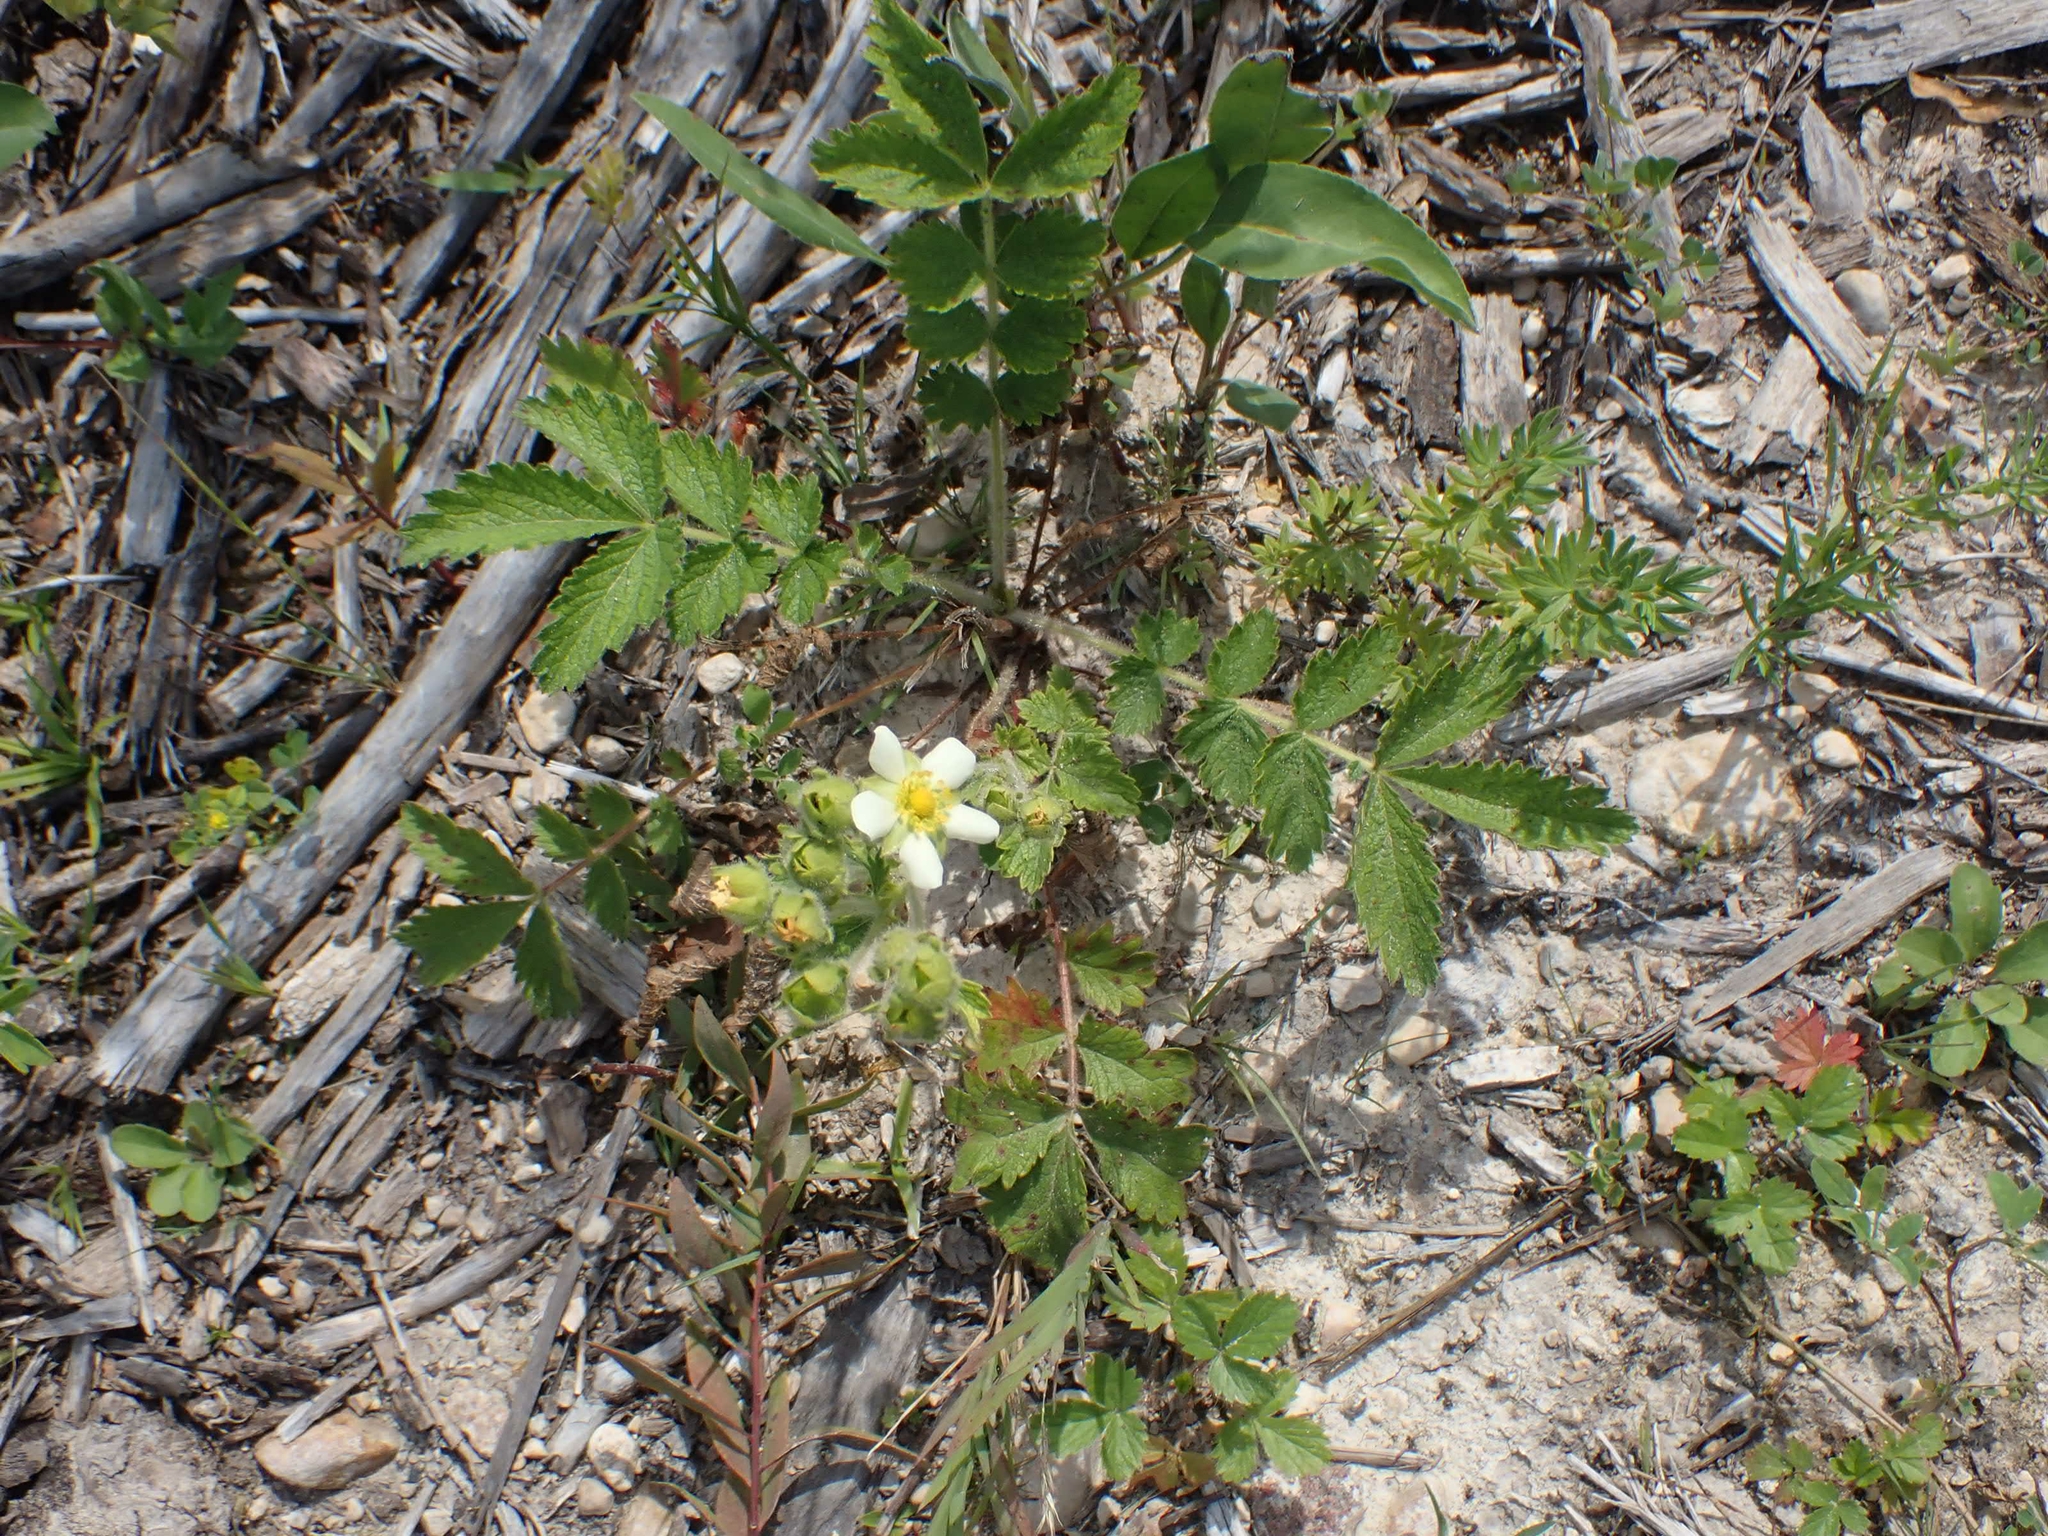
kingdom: Plantae
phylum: Tracheophyta
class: Magnoliopsida
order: Rosales
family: Rosaceae
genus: Drymocallis
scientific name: Drymocallis arguta
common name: Tall cinquefoil
